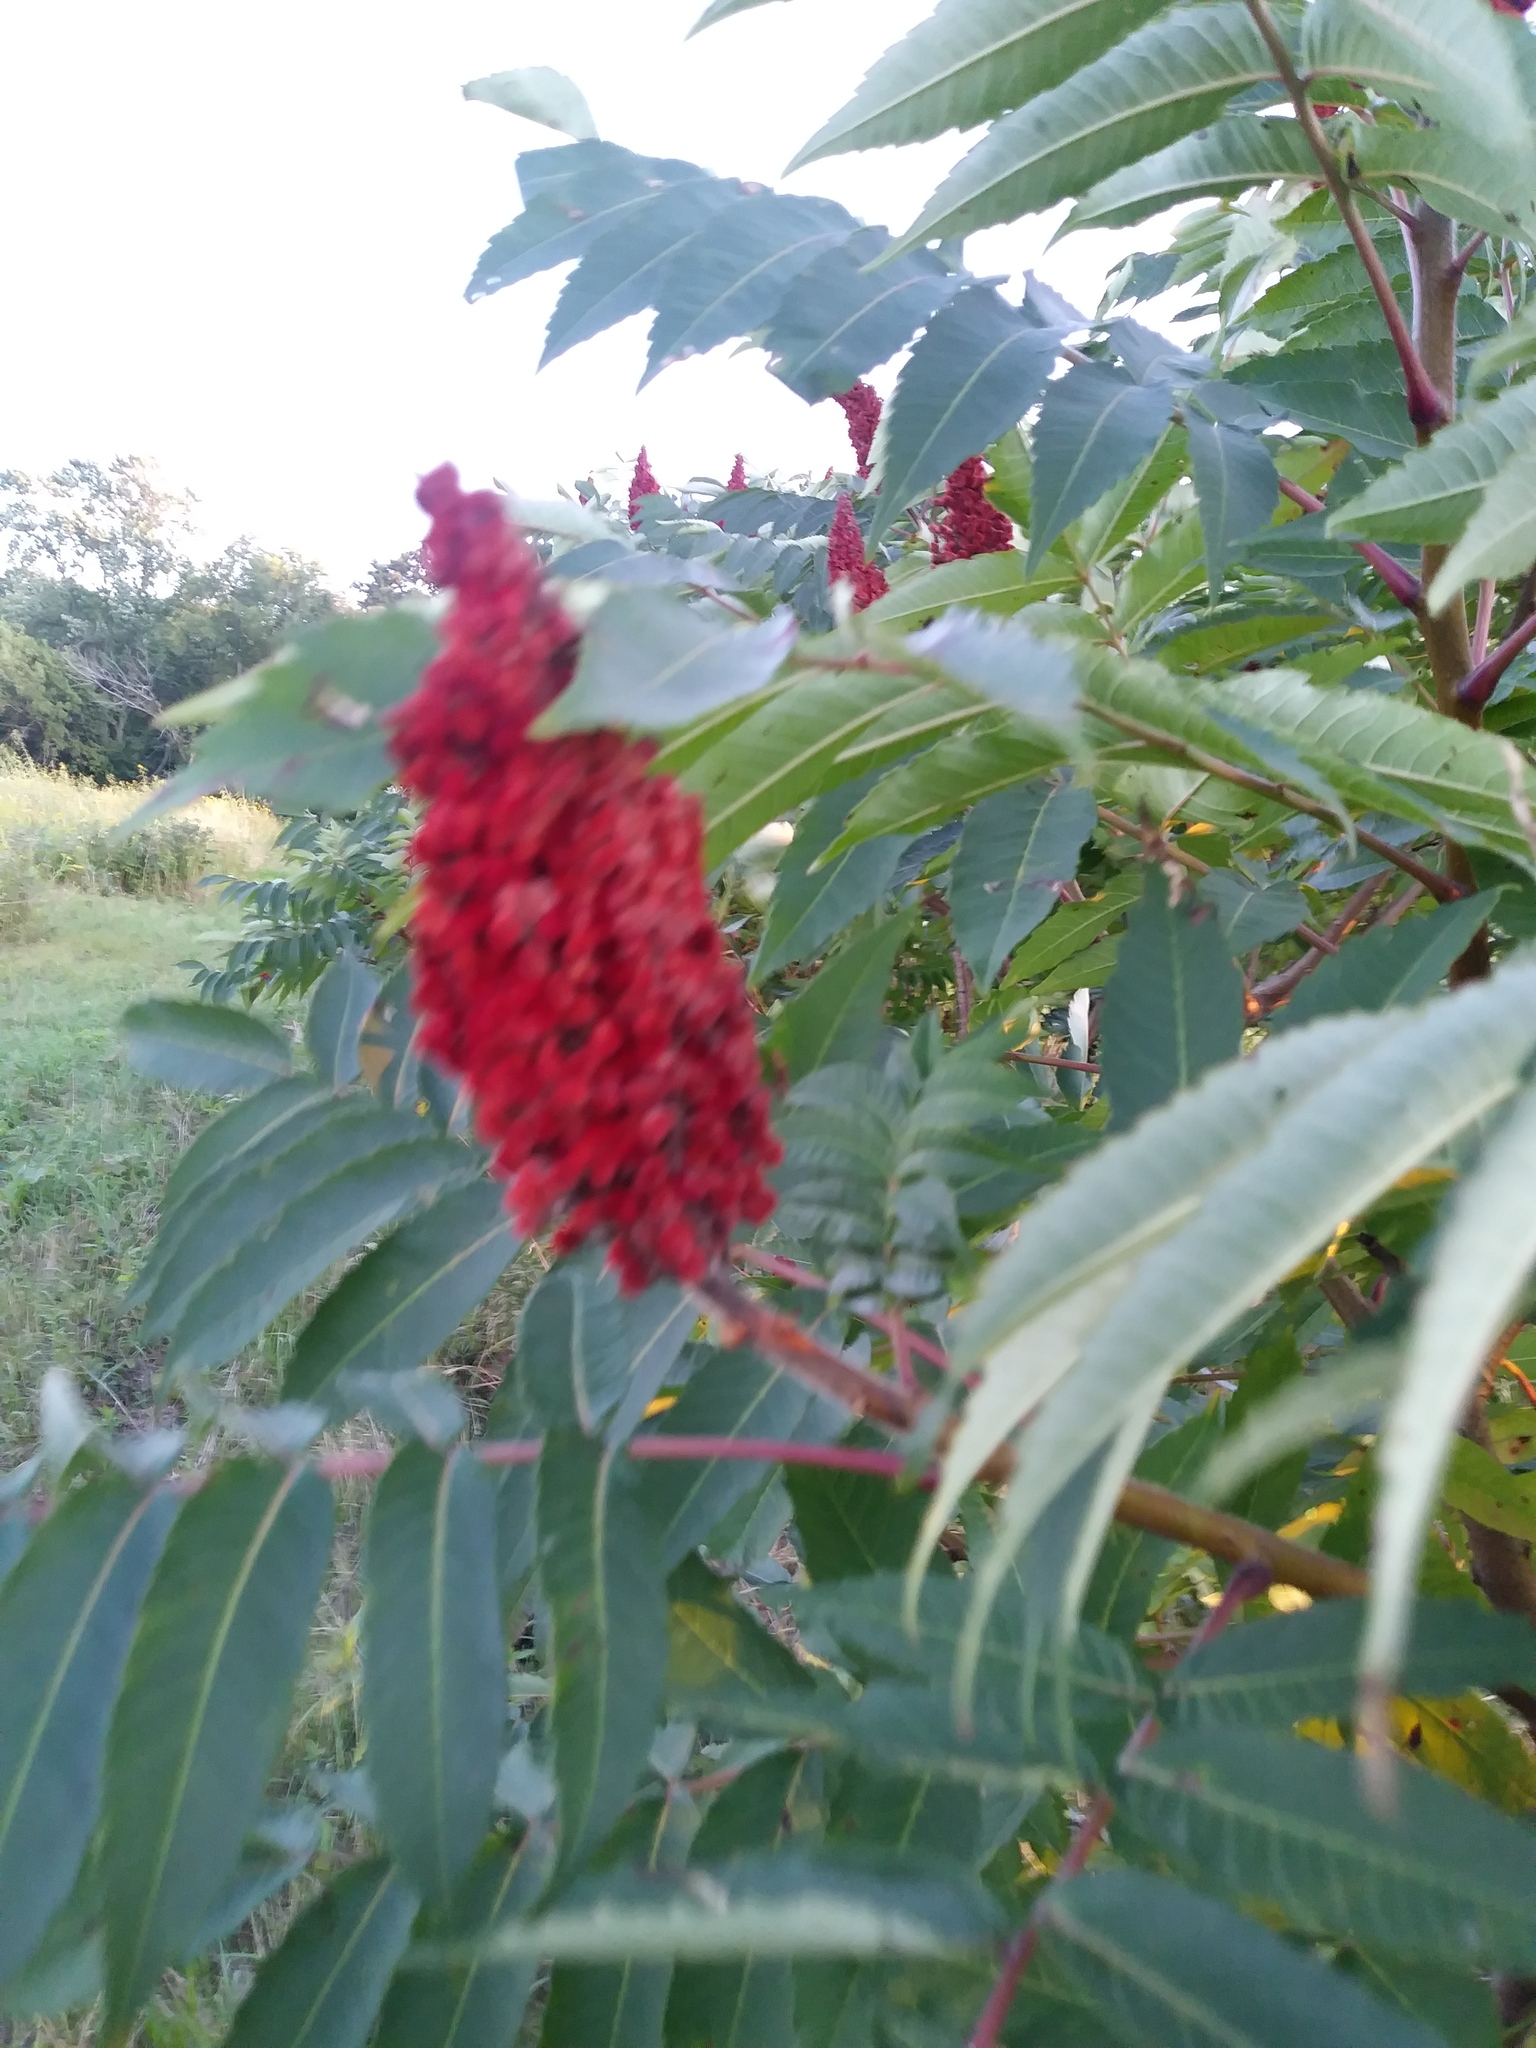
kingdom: Plantae
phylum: Tracheophyta
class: Magnoliopsida
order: Sapindales
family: Anacardiaceae
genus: Rhus
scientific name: Rhus typhina
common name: Staghorn sumac
